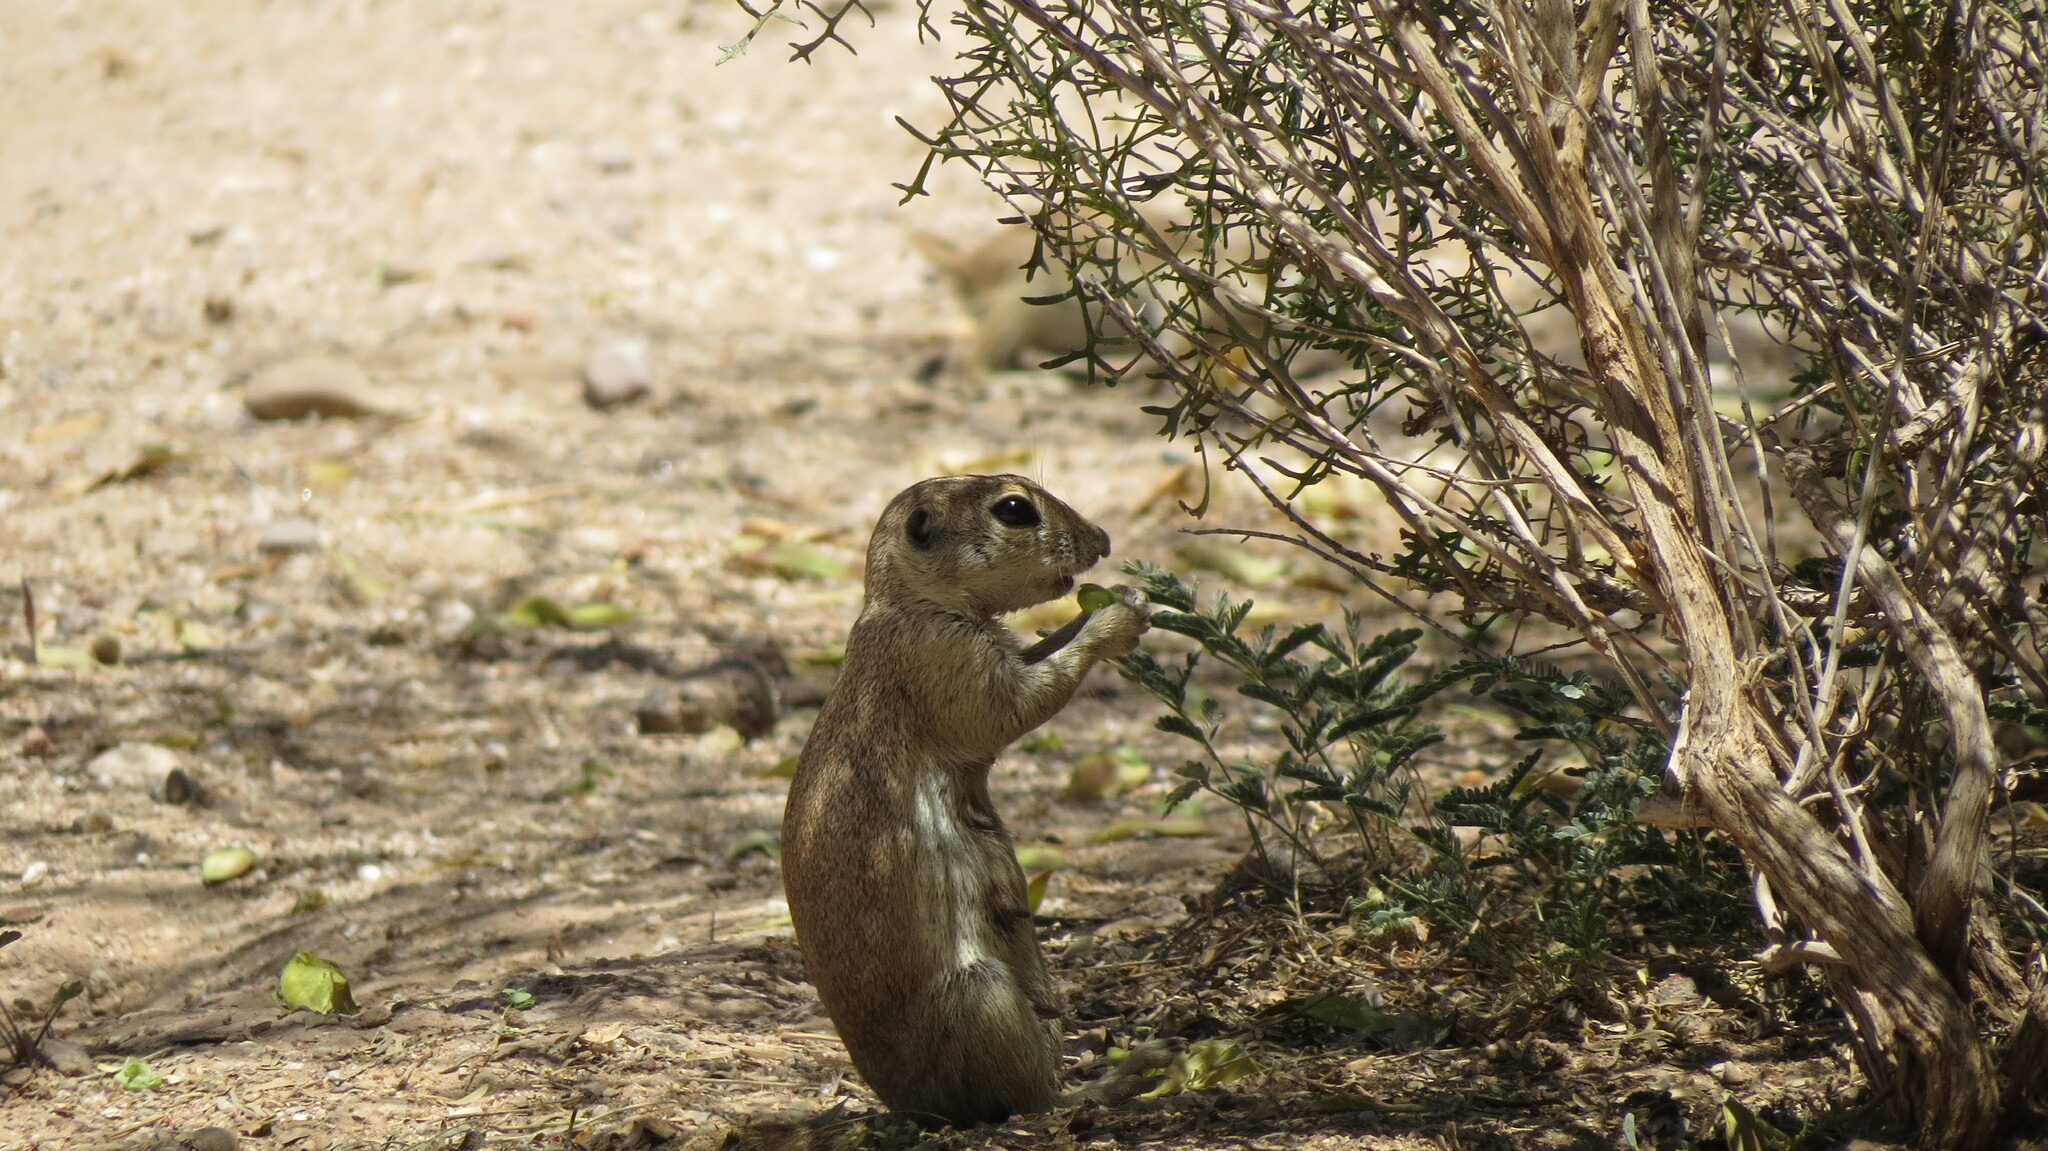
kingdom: Animalia
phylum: Chordata
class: Mammalia
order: Rodentia
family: Sciuridae
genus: Xerospermophilus
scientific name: Xerospermophilus tereticaudus
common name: Round-tailed ground squirrel
